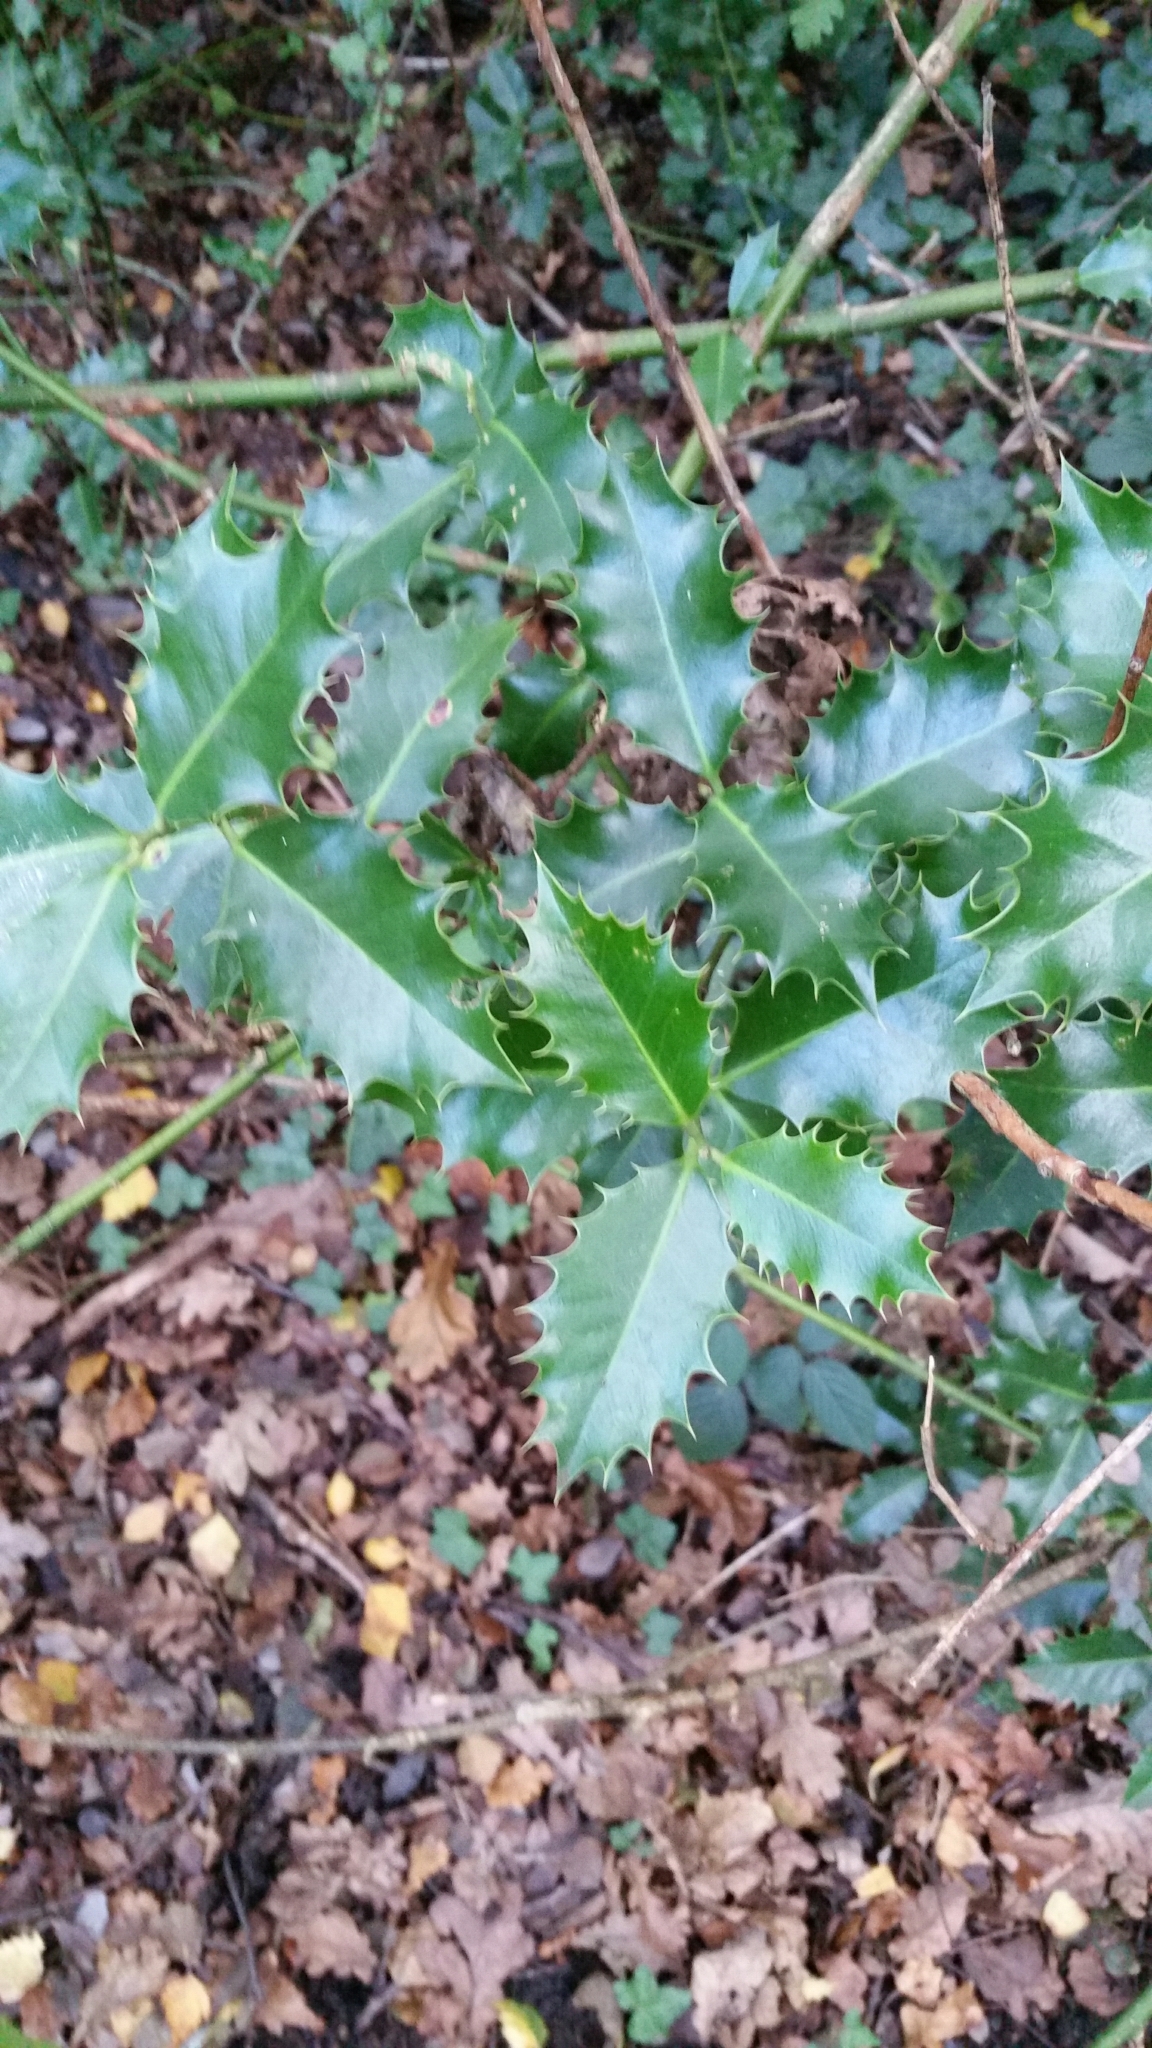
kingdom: Plantae
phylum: Tracheophyta
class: Magnoliopsida
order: Aquifoliales
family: Aquifoliaceae
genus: Ilex
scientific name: Ilex aquifolium
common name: English holly
